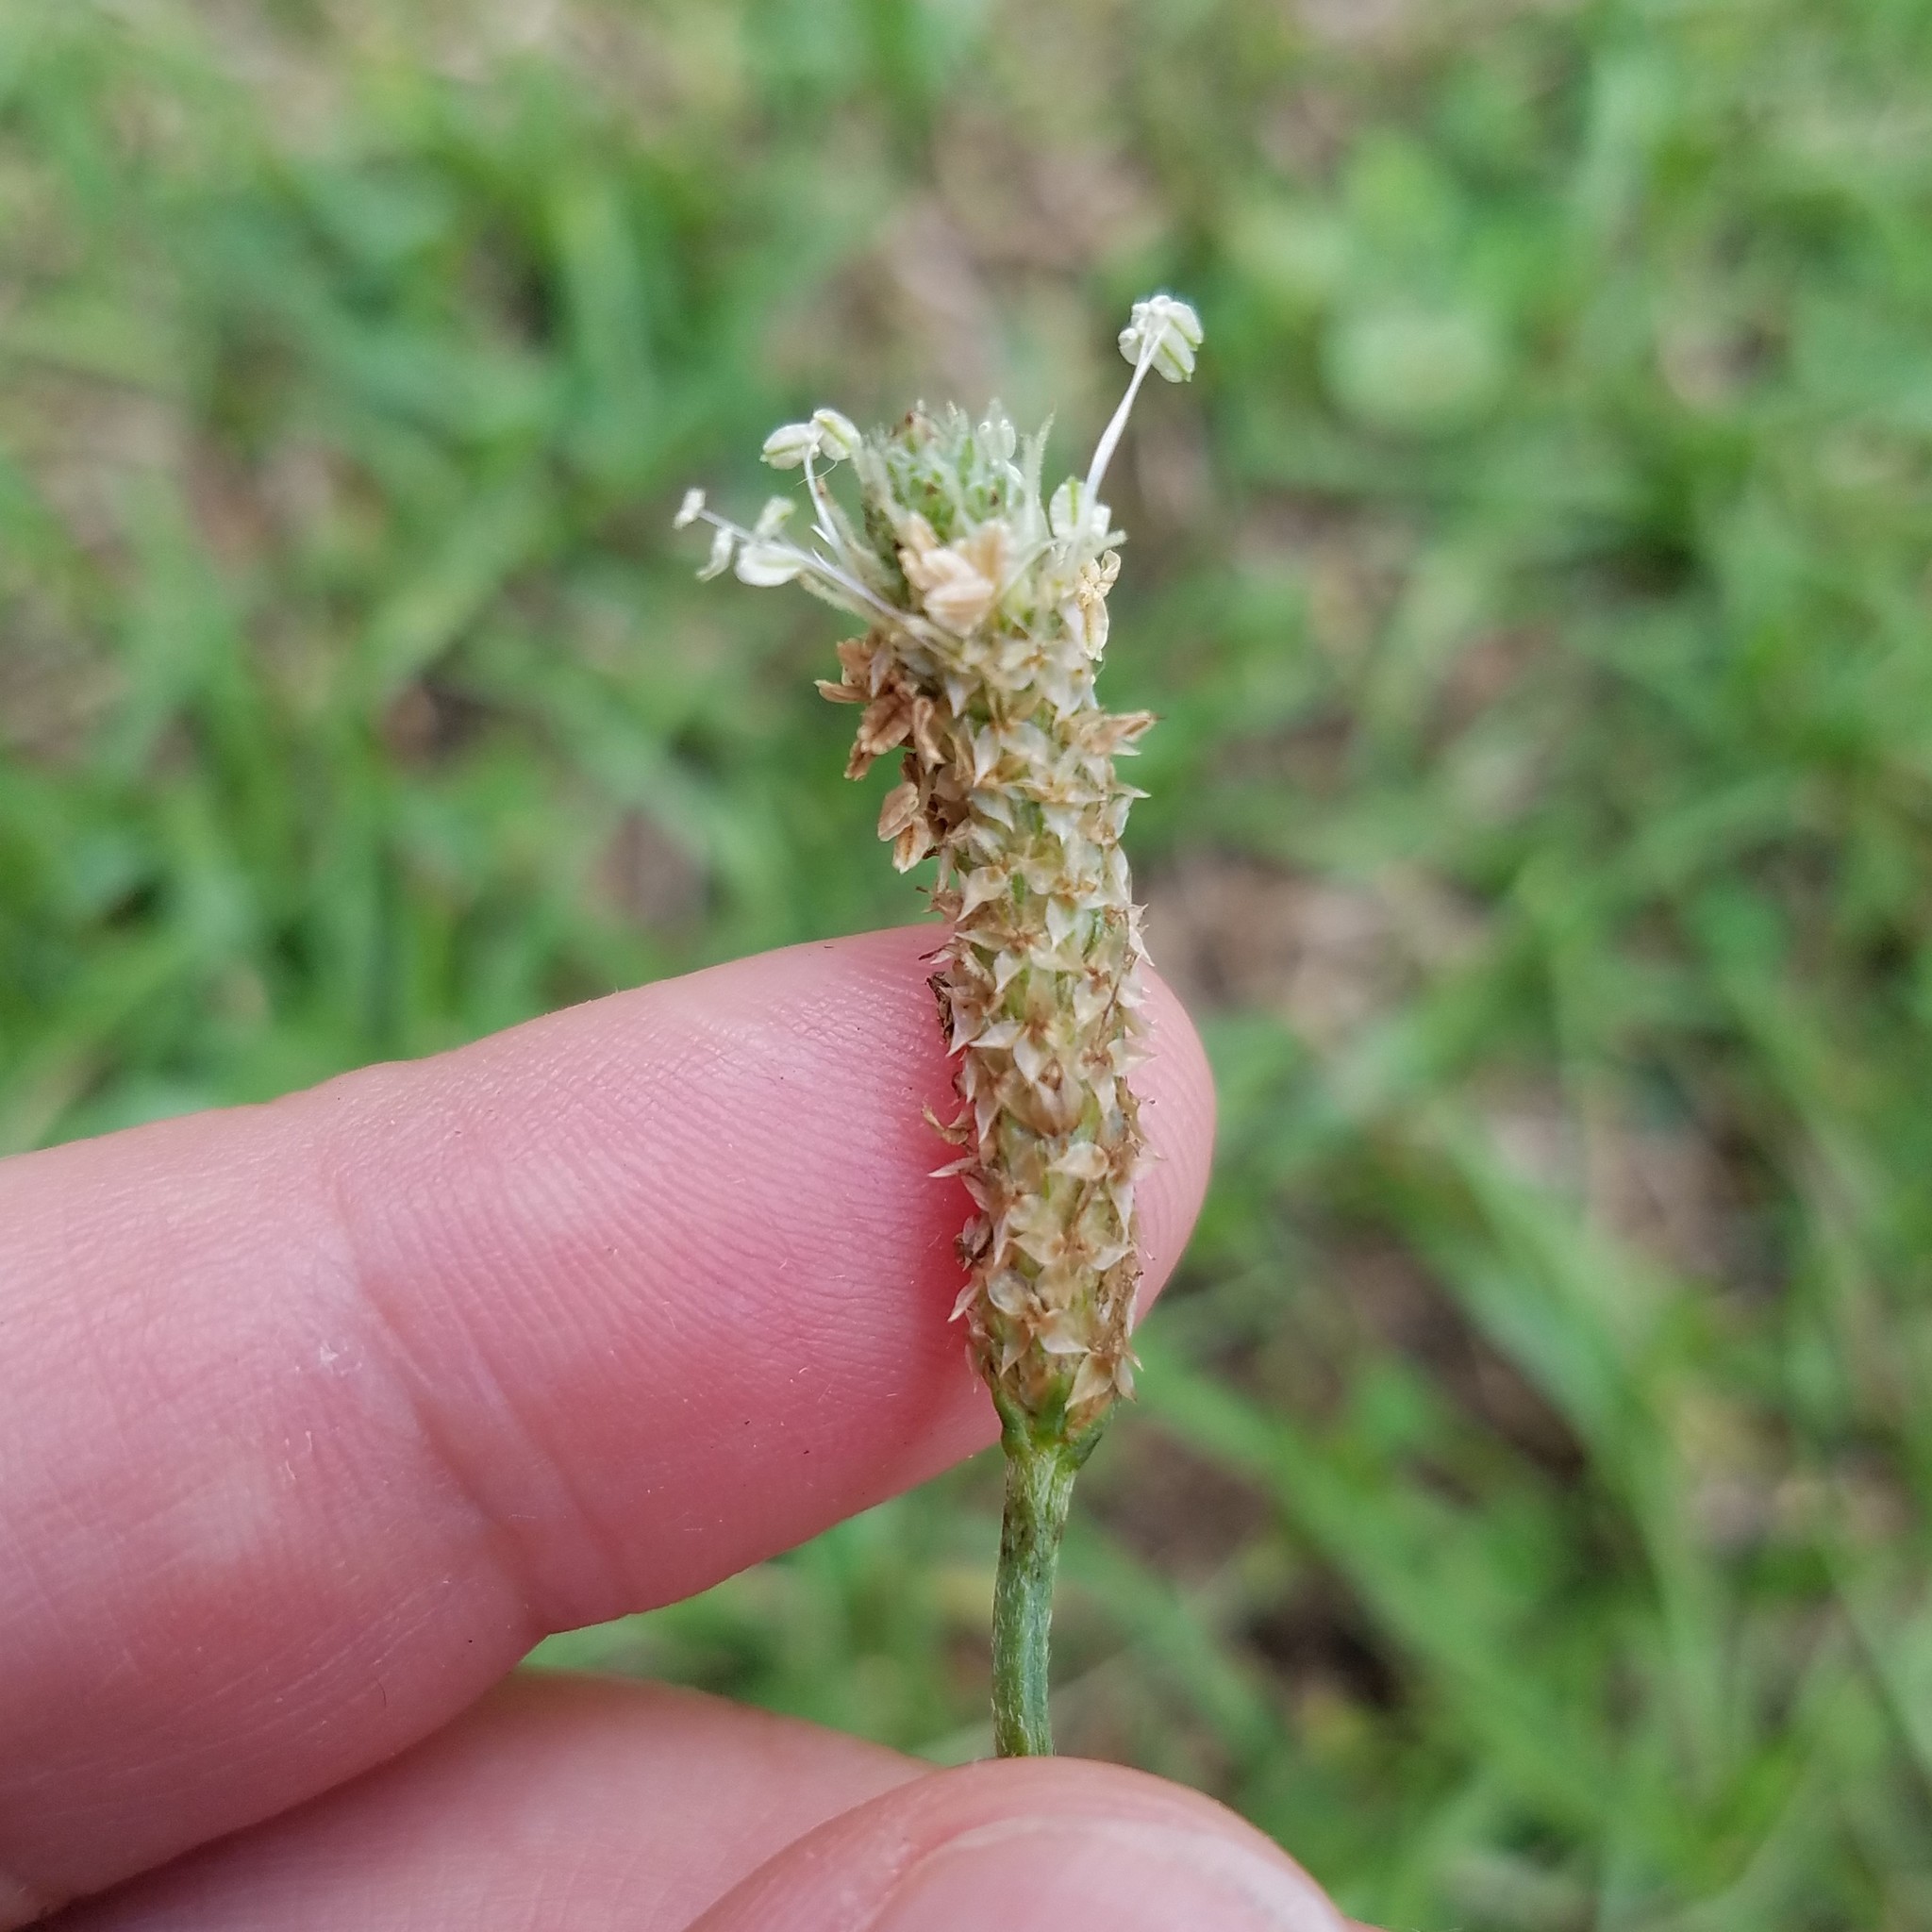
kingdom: Plantae
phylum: Tracheophyta
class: Magnoliopsida
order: Lamiales
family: Plantaginaceae
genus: Plantago
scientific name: Plantago lanceolata
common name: Ribwort plantain
